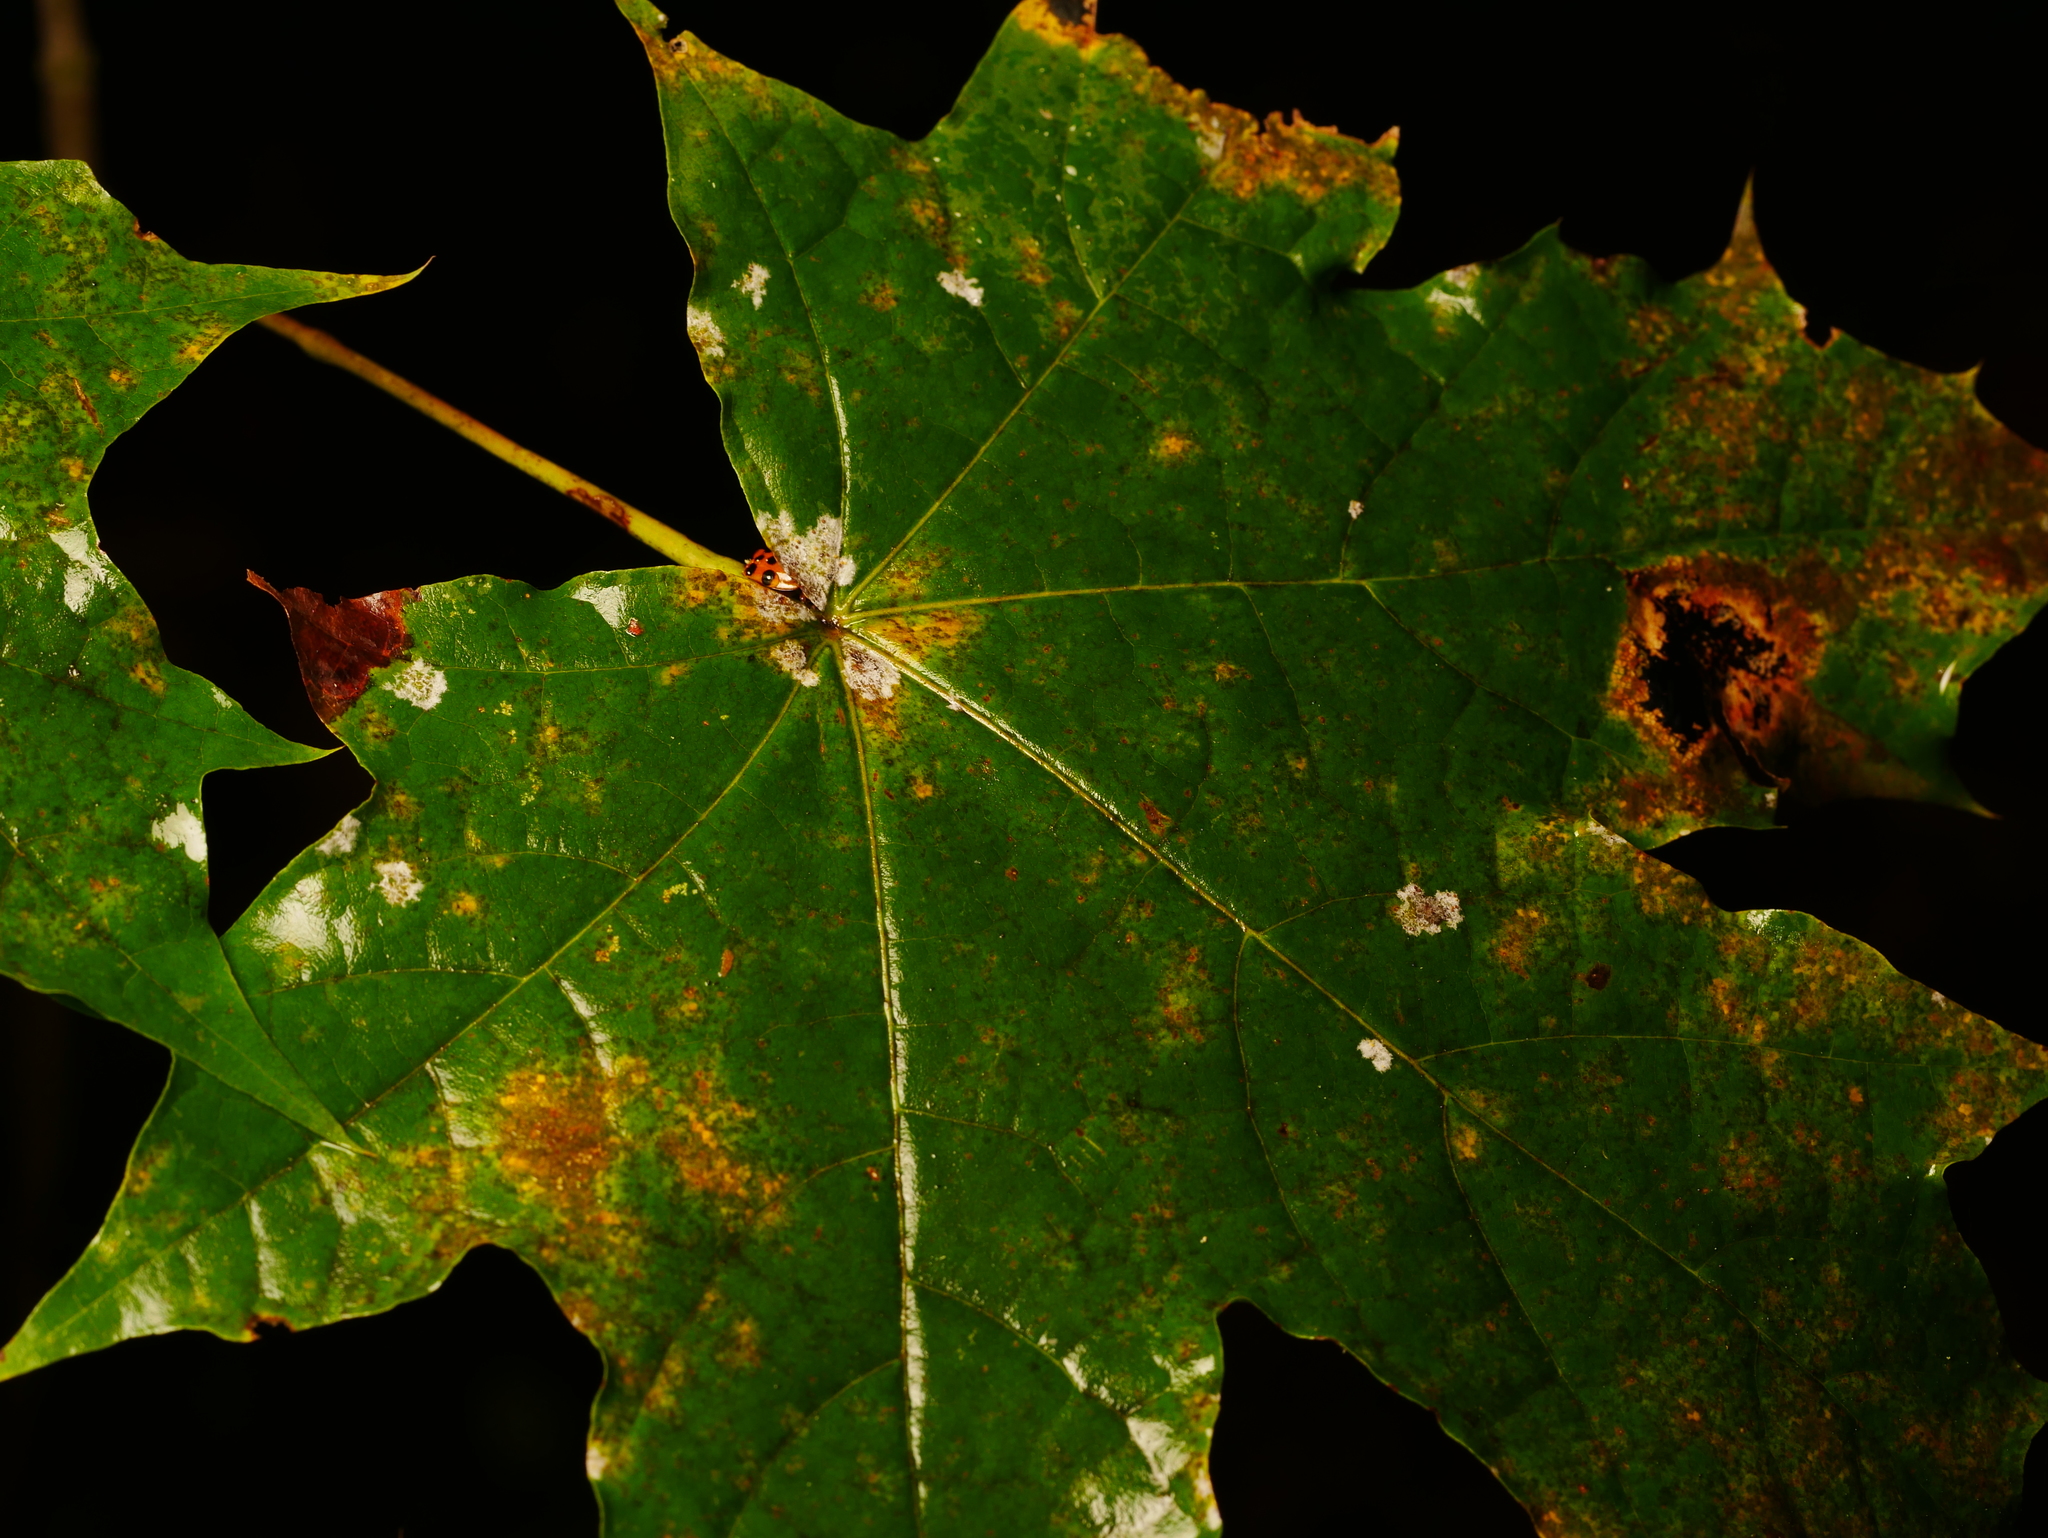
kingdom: Fungi
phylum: Ascomycota
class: Leotiomycetes
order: Helotiales
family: Erysiphaceae
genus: Sawadaea
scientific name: Sawadaea tulasnei
